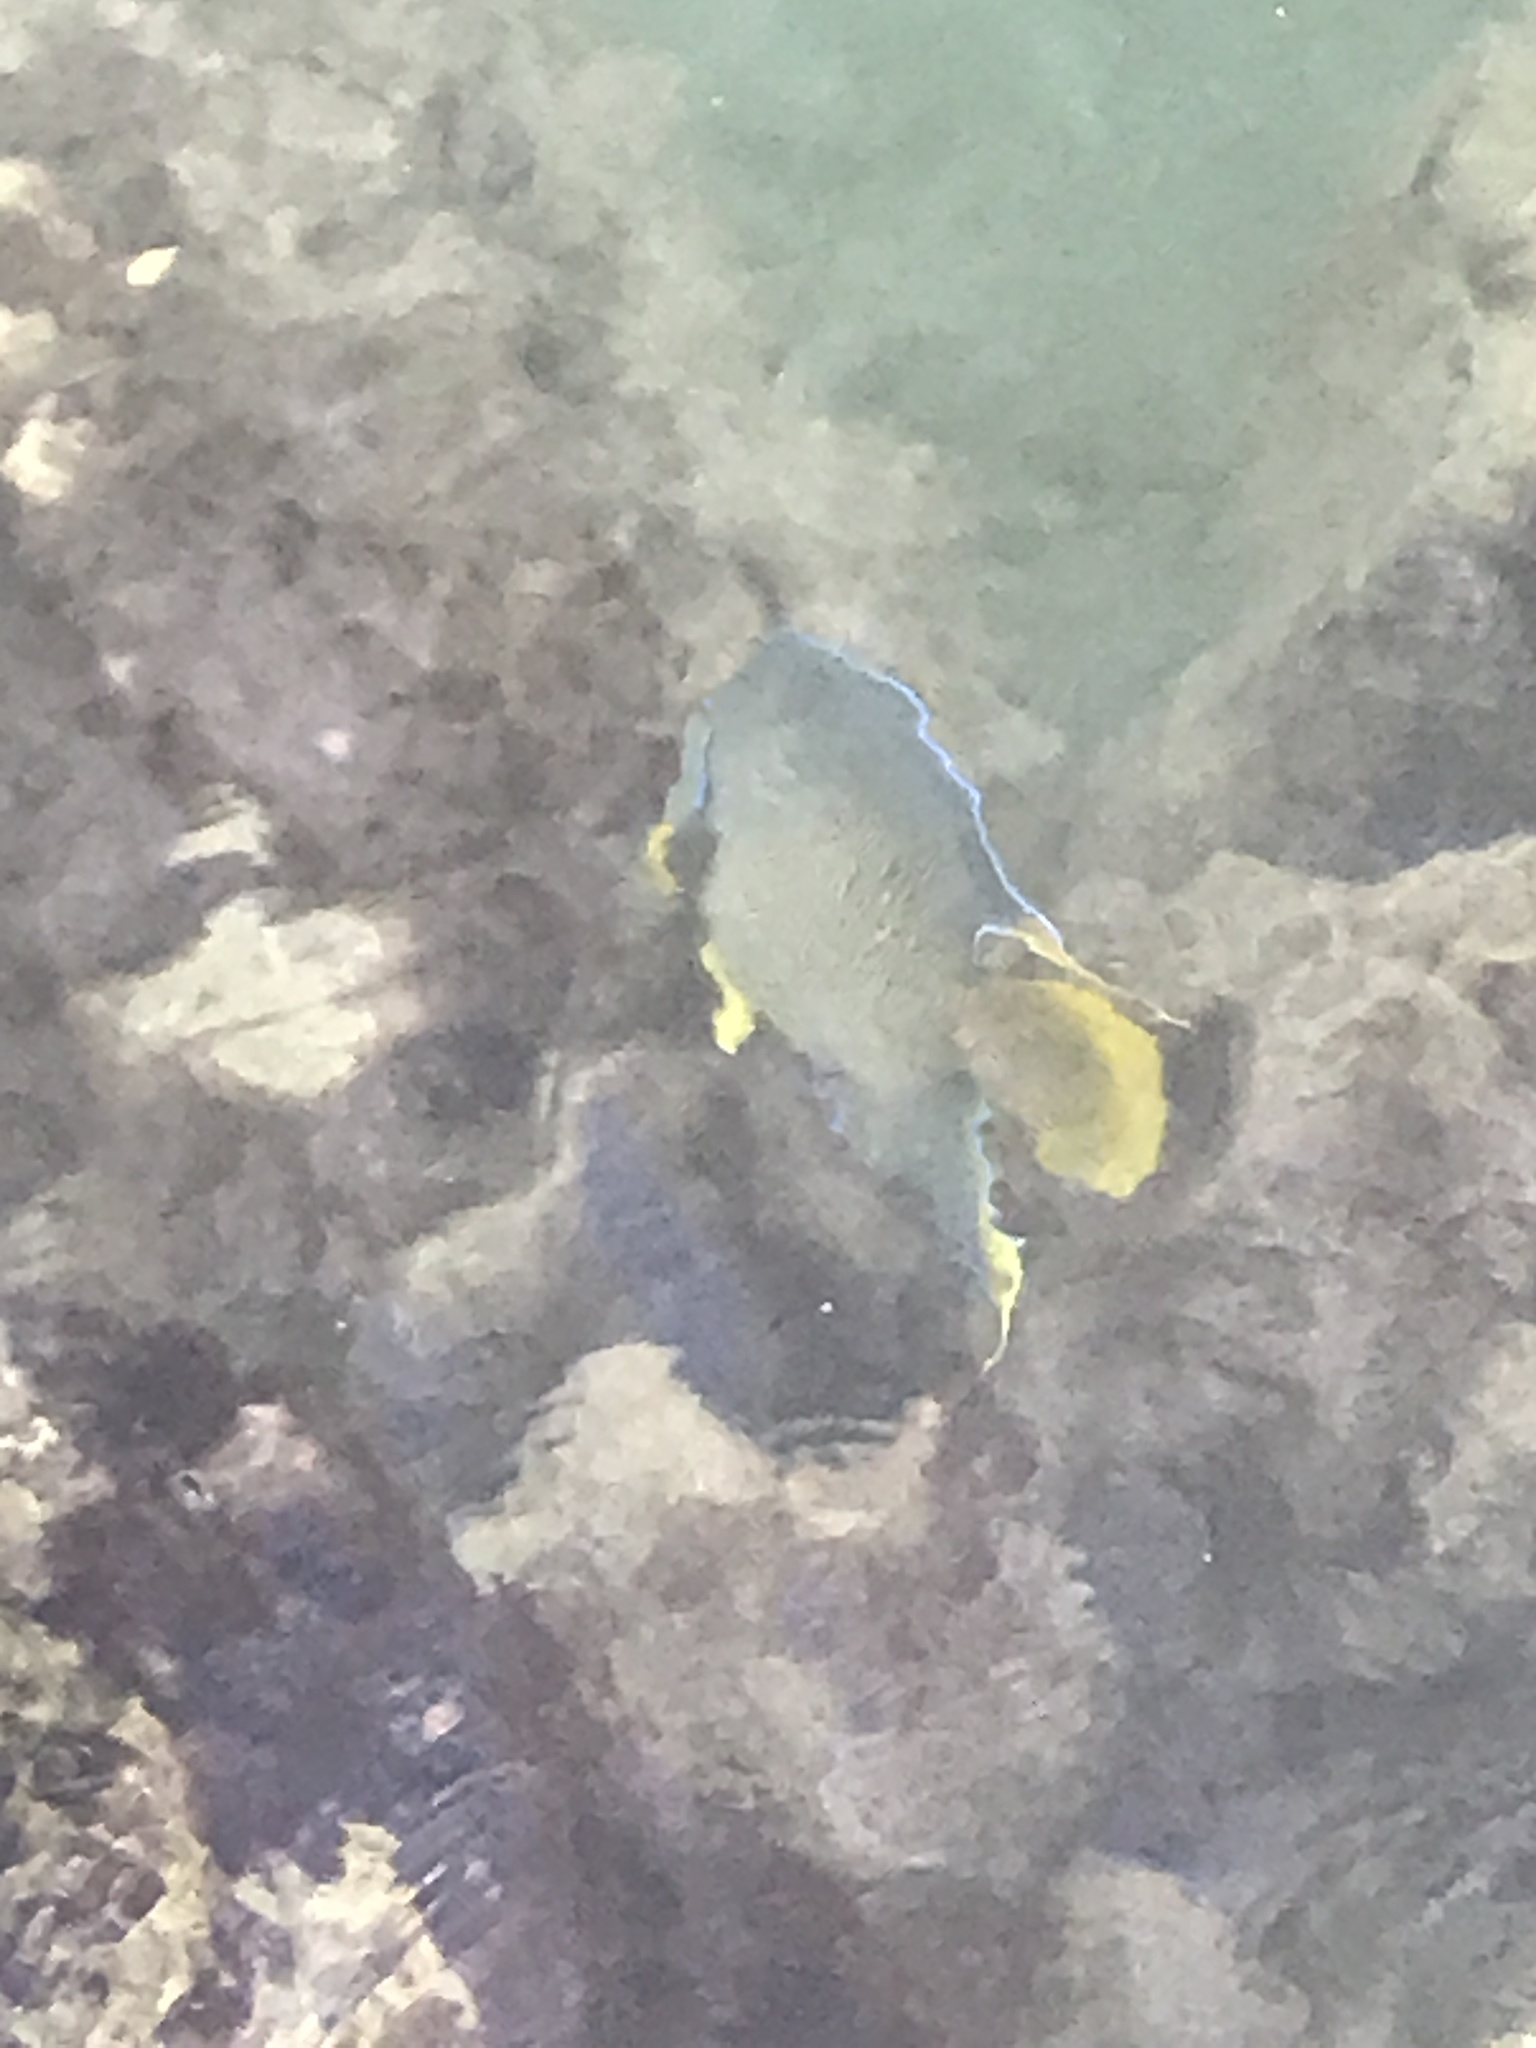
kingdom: Animalia
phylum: Chordata
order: Perciformes
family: Pomacanthidae
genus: Holacanthus
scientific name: Holacanthus bermudensis
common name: Blue angelfish
